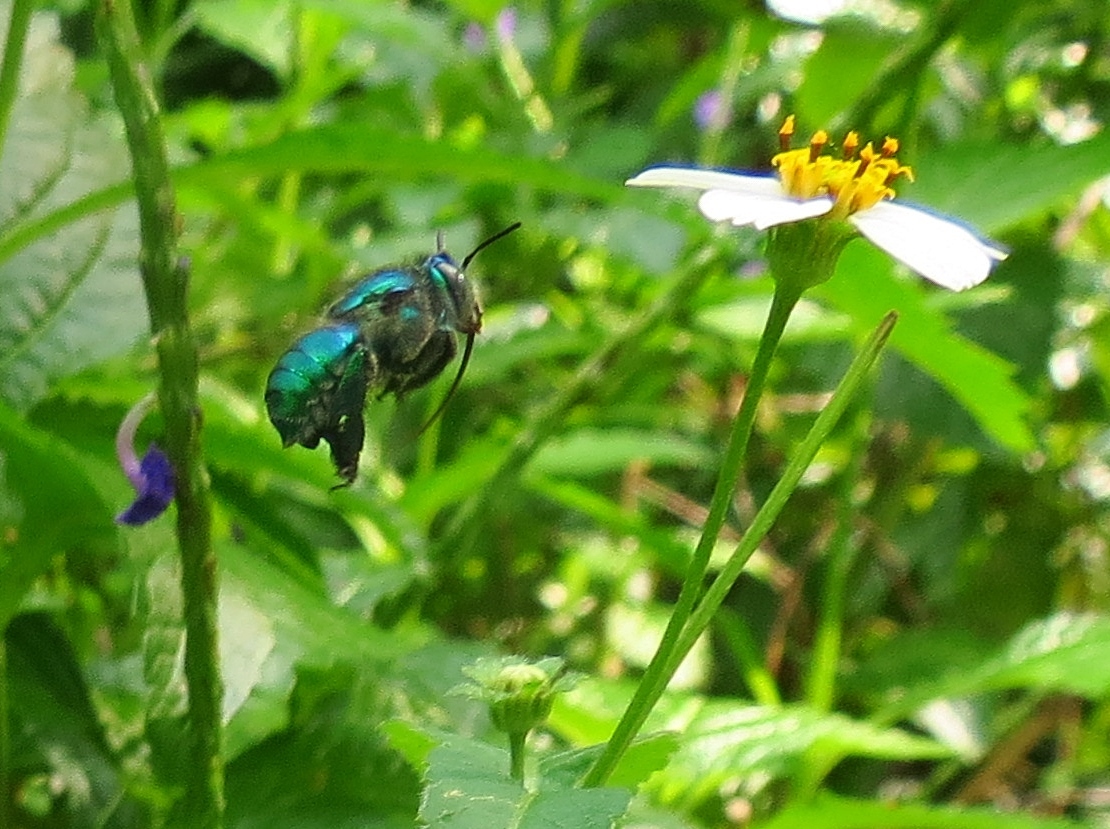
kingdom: Animalia
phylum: Arthropoda
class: Insecta
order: Hymenoptera
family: Halictidae
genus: Agapostemon
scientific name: Agapostemon splendens
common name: Brown-winged striped sweat bee
